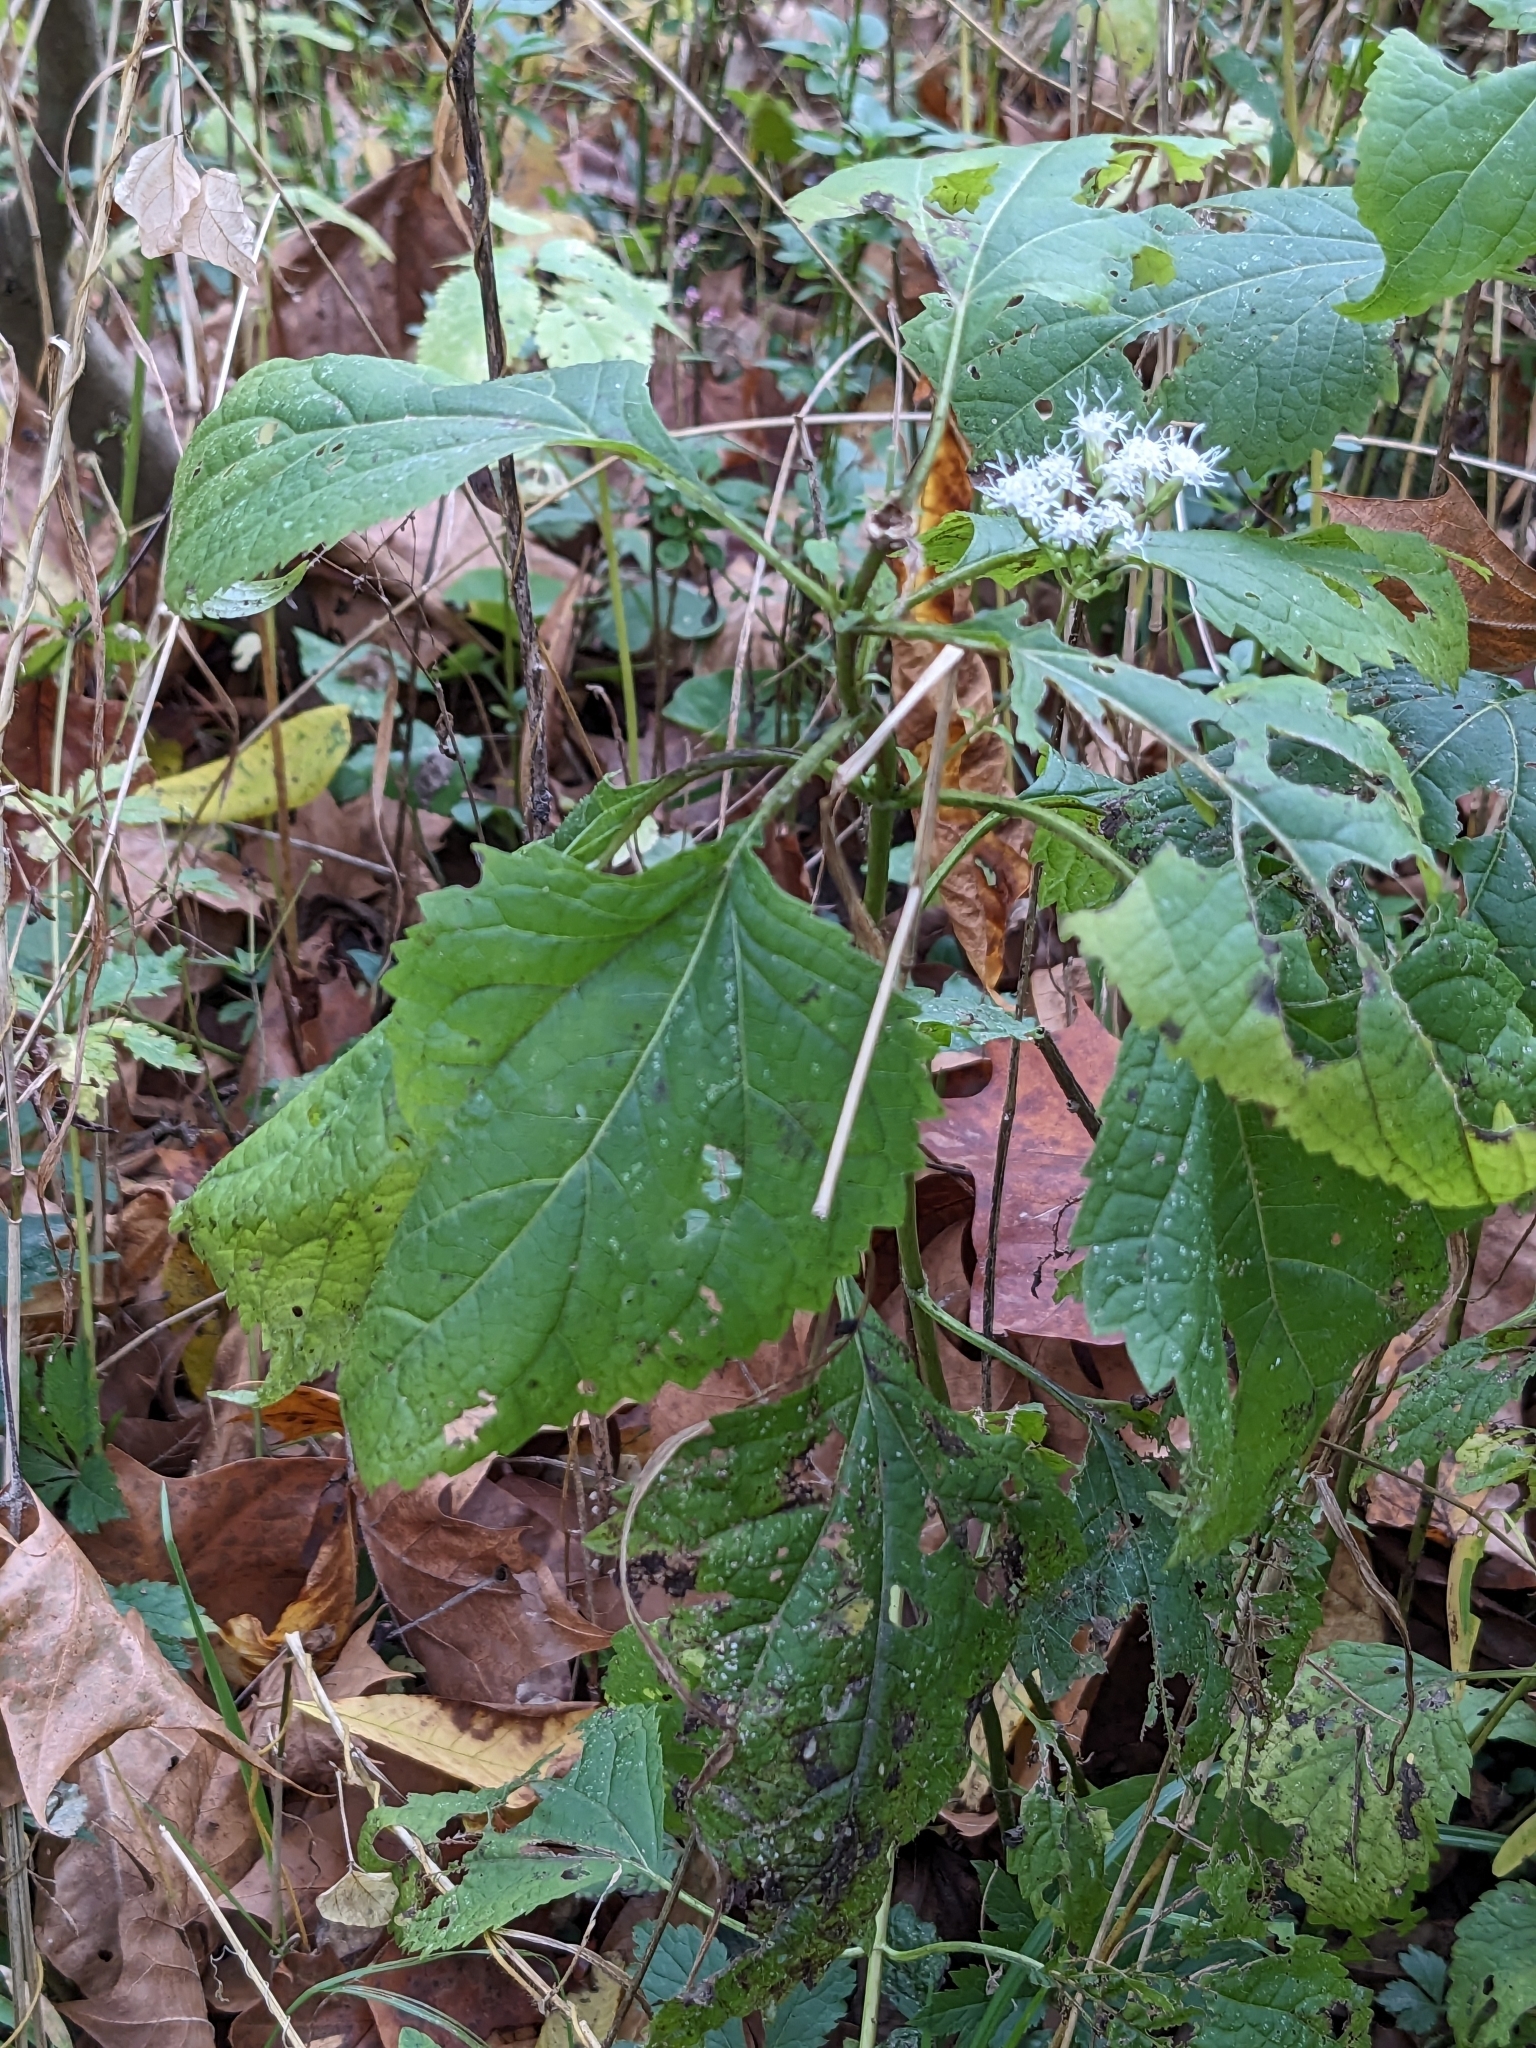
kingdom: Plantae
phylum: Tracheophyta
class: Magnoliopsida
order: Asterales
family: Asteraceae
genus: Ageratina
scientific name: Ageratina altissima
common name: White snakeroot
